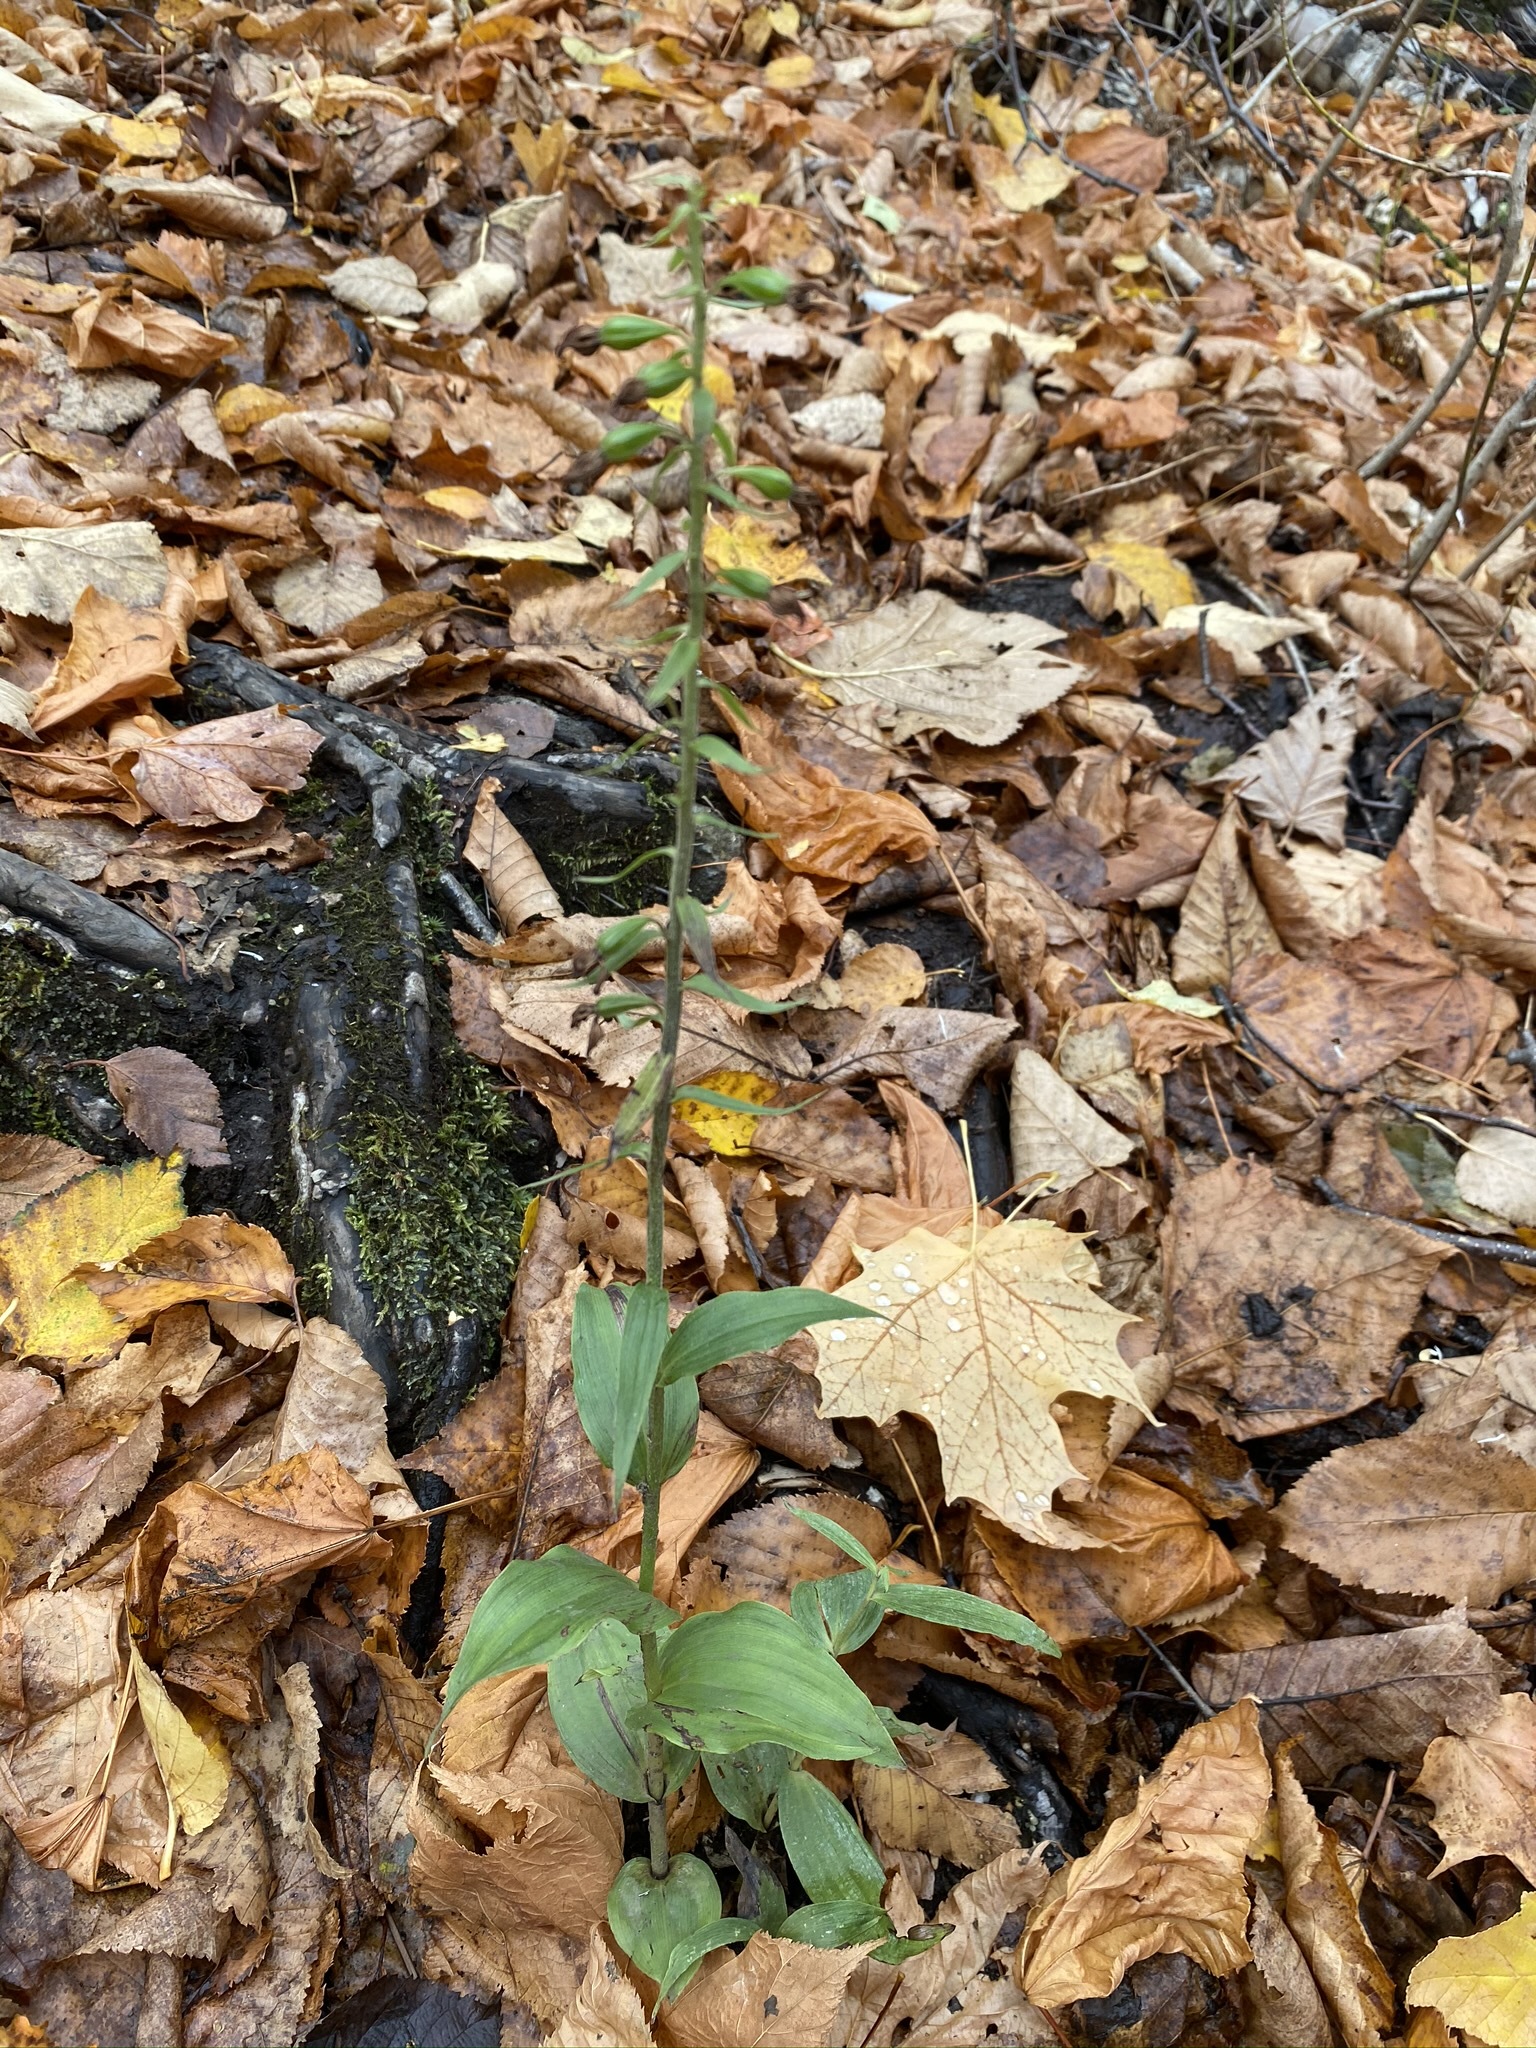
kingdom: Plantae
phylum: Tracheophyta
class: Liliopsida
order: Asparagales
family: Orchidaceae
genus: Epipactis
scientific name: Epipactis helleborine
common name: Broad-leaved helleborine
